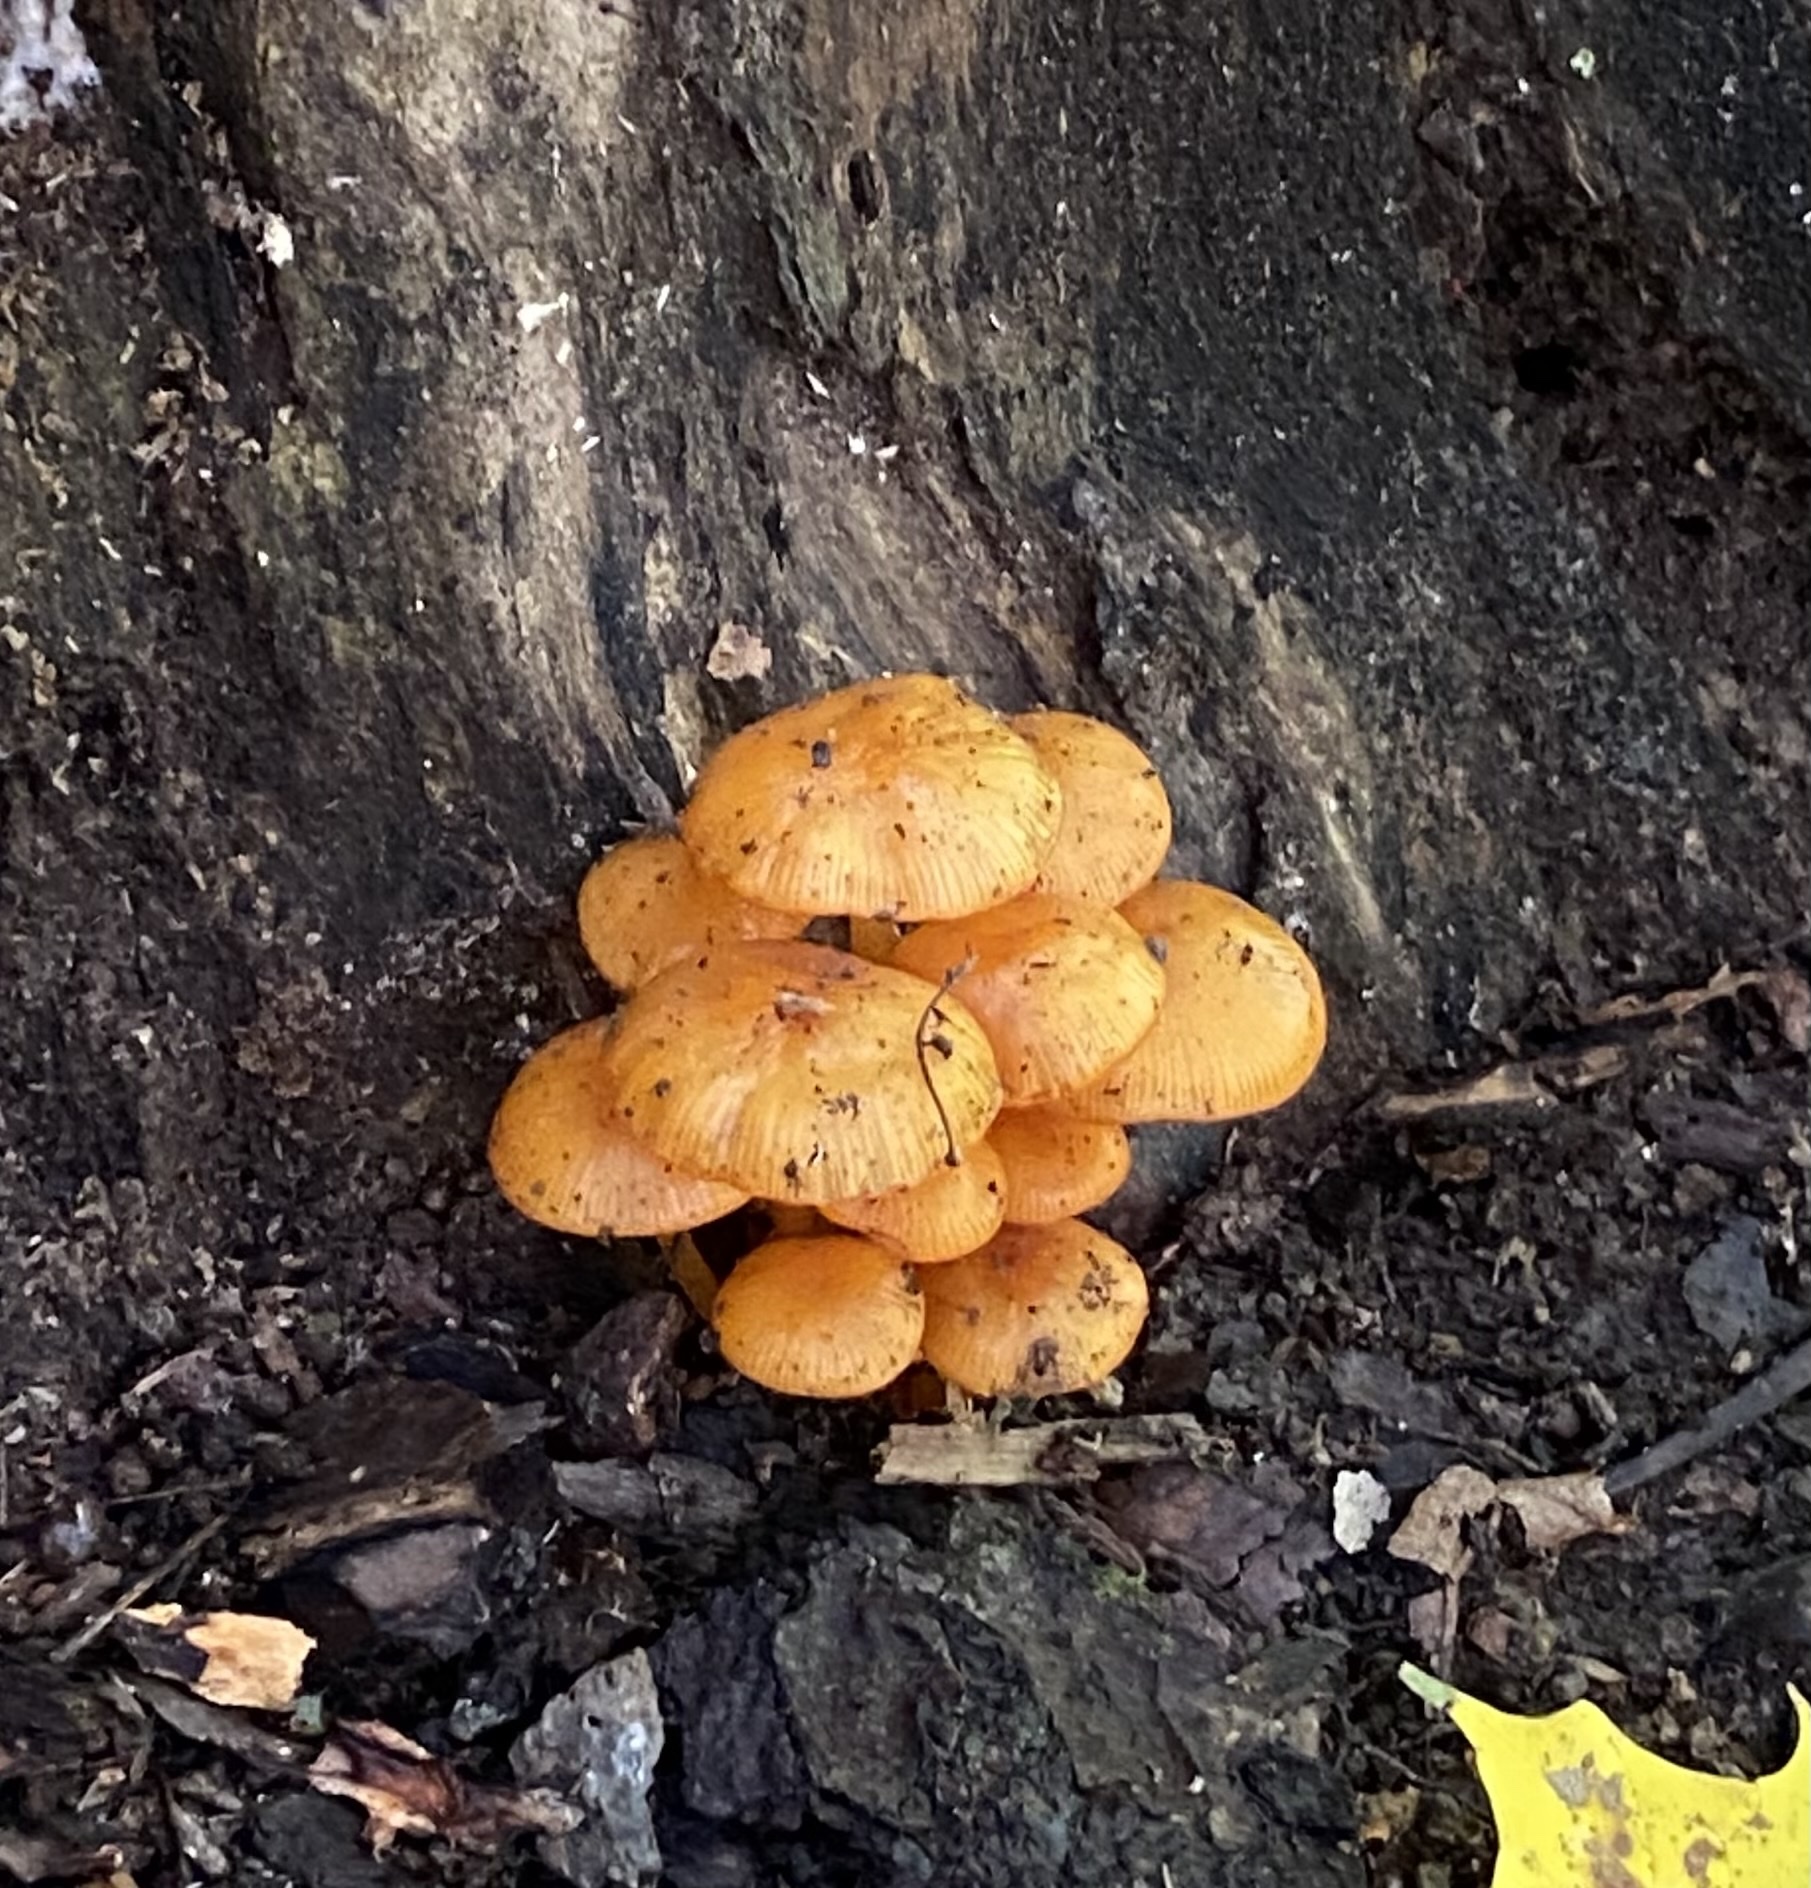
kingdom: Fungi
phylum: Basidiomycota
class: Agaricomycetes
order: Agaricales
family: Mycenaceae
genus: Mycena
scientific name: Mycena leaiana
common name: Orange mycena
